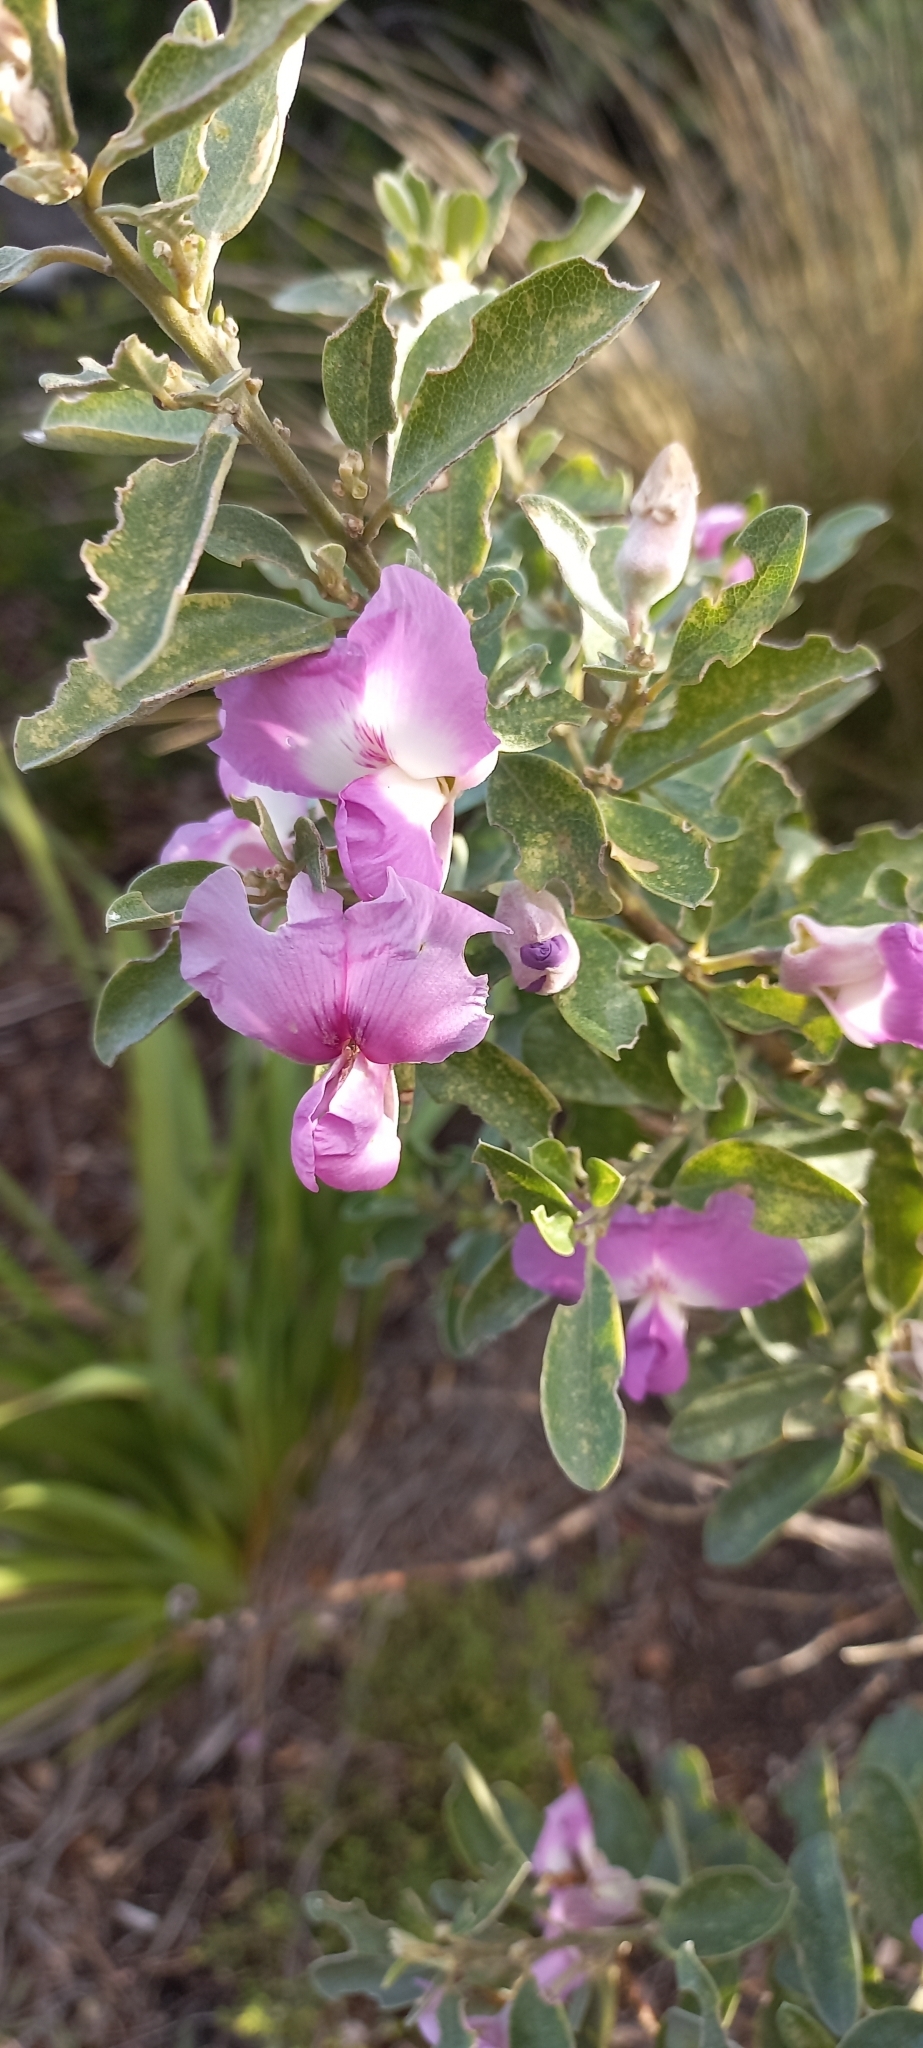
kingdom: Plantae
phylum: Tracheophyta
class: Magnoliopsida
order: Fabales
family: Fabaceae
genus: Podalyria
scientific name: Podalyria calyptrata
